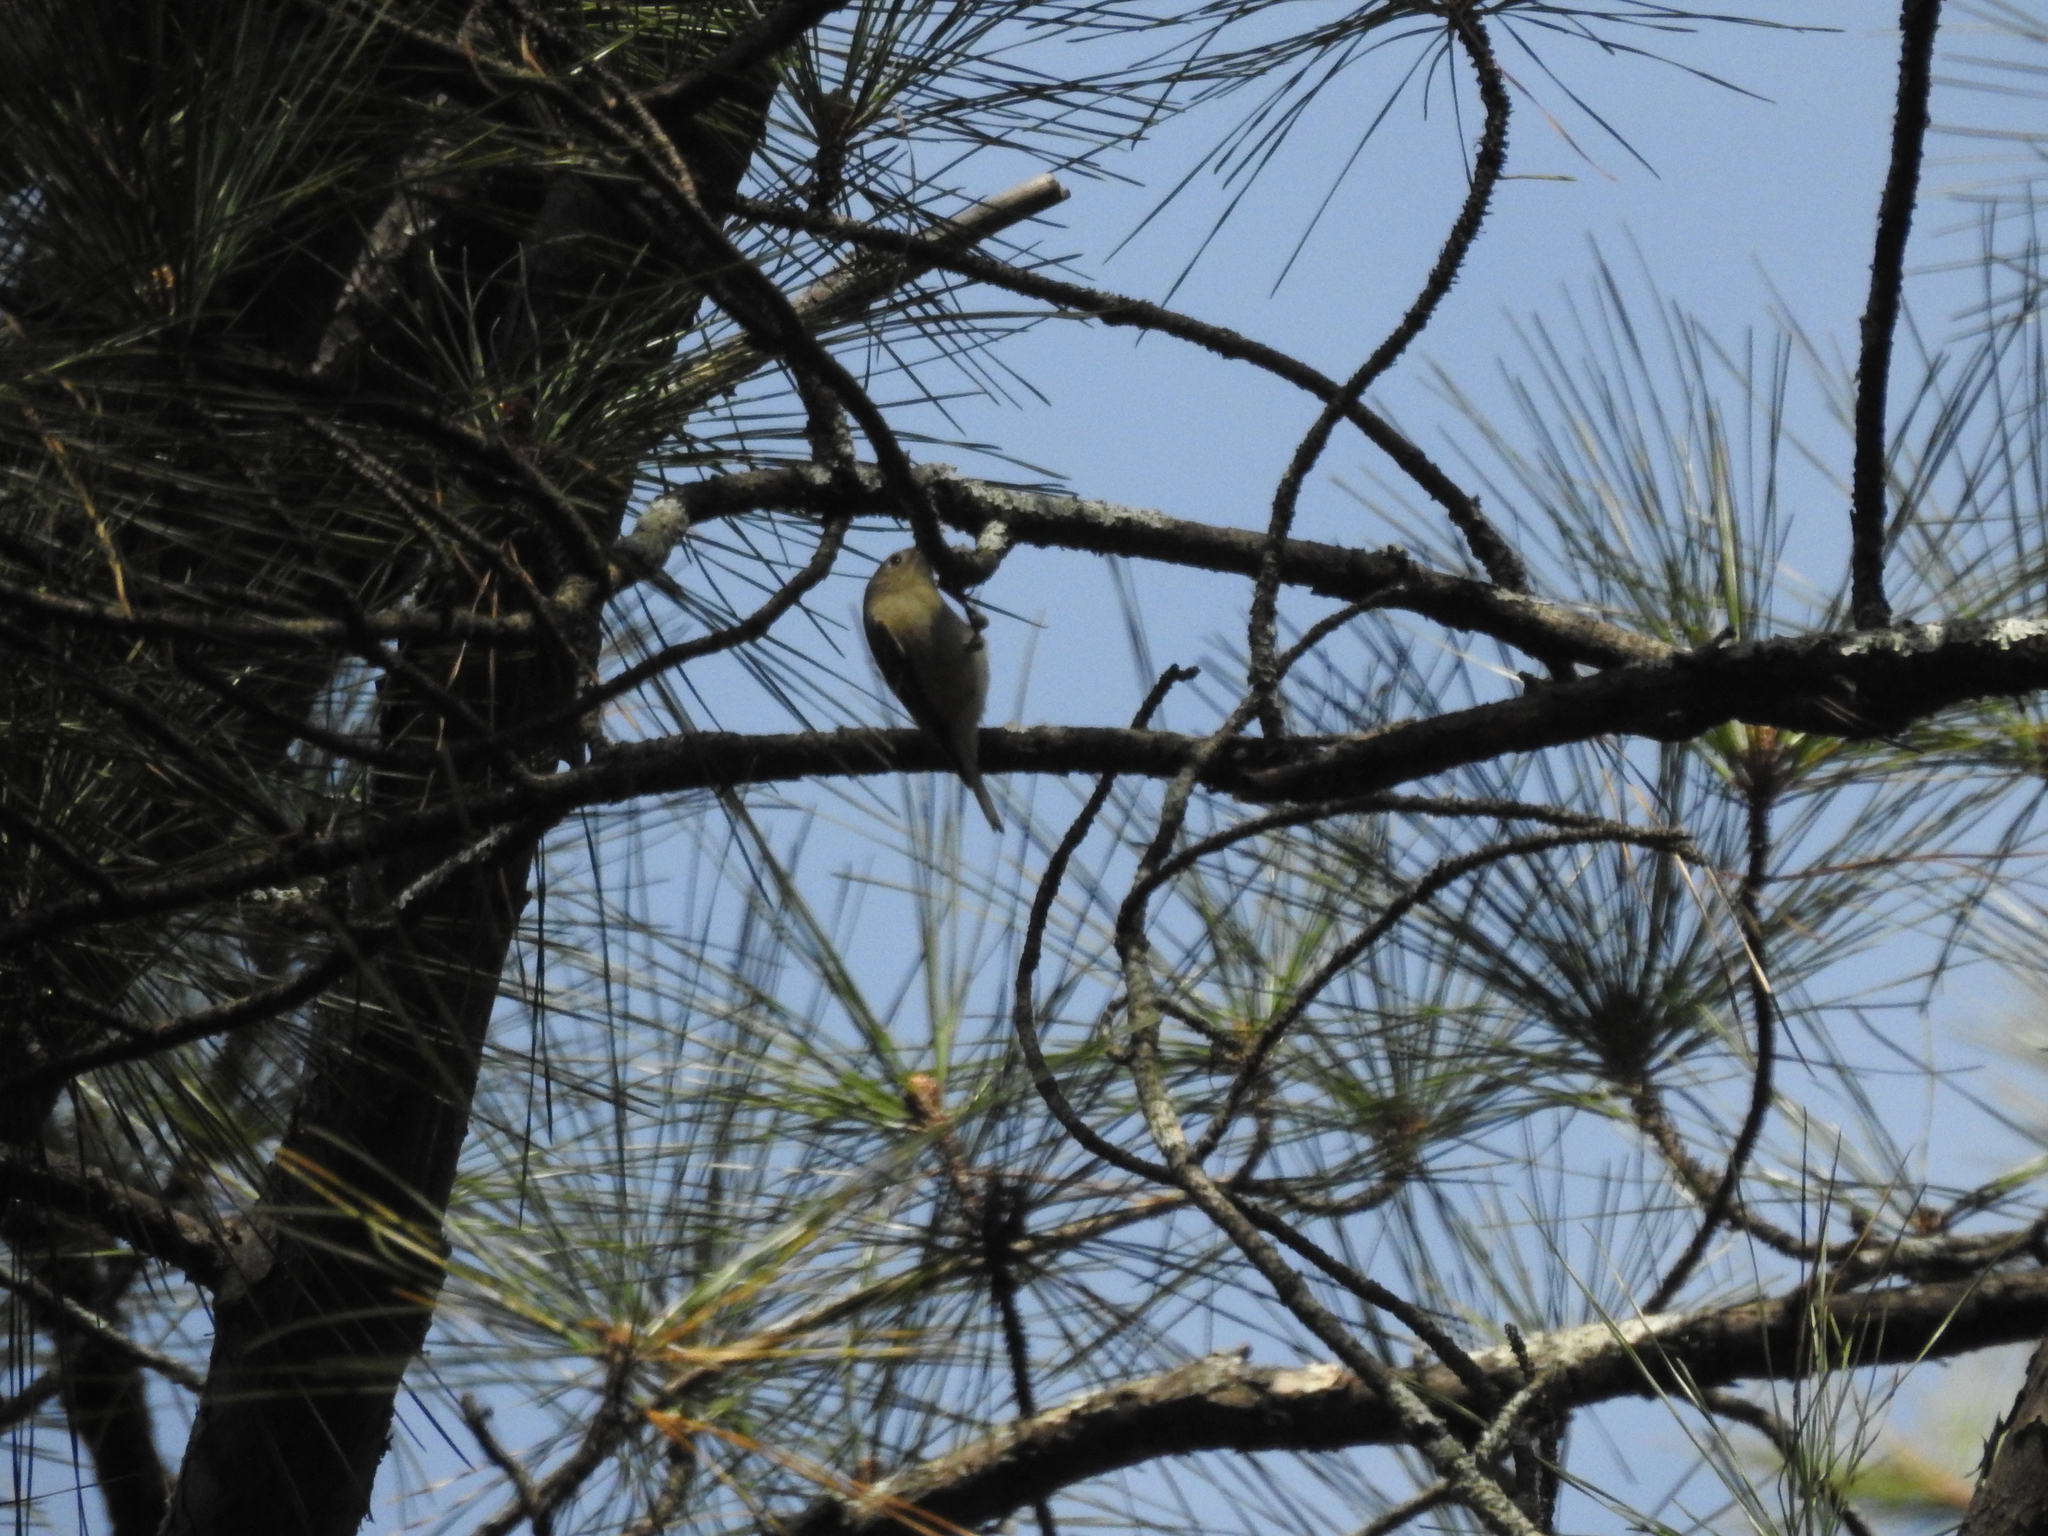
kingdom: Animalia
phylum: Chordata
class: Aves
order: Passeriformes
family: Regulidae
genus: Regulus
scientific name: Regulus calendula
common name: Ruby-crowned kinglet
